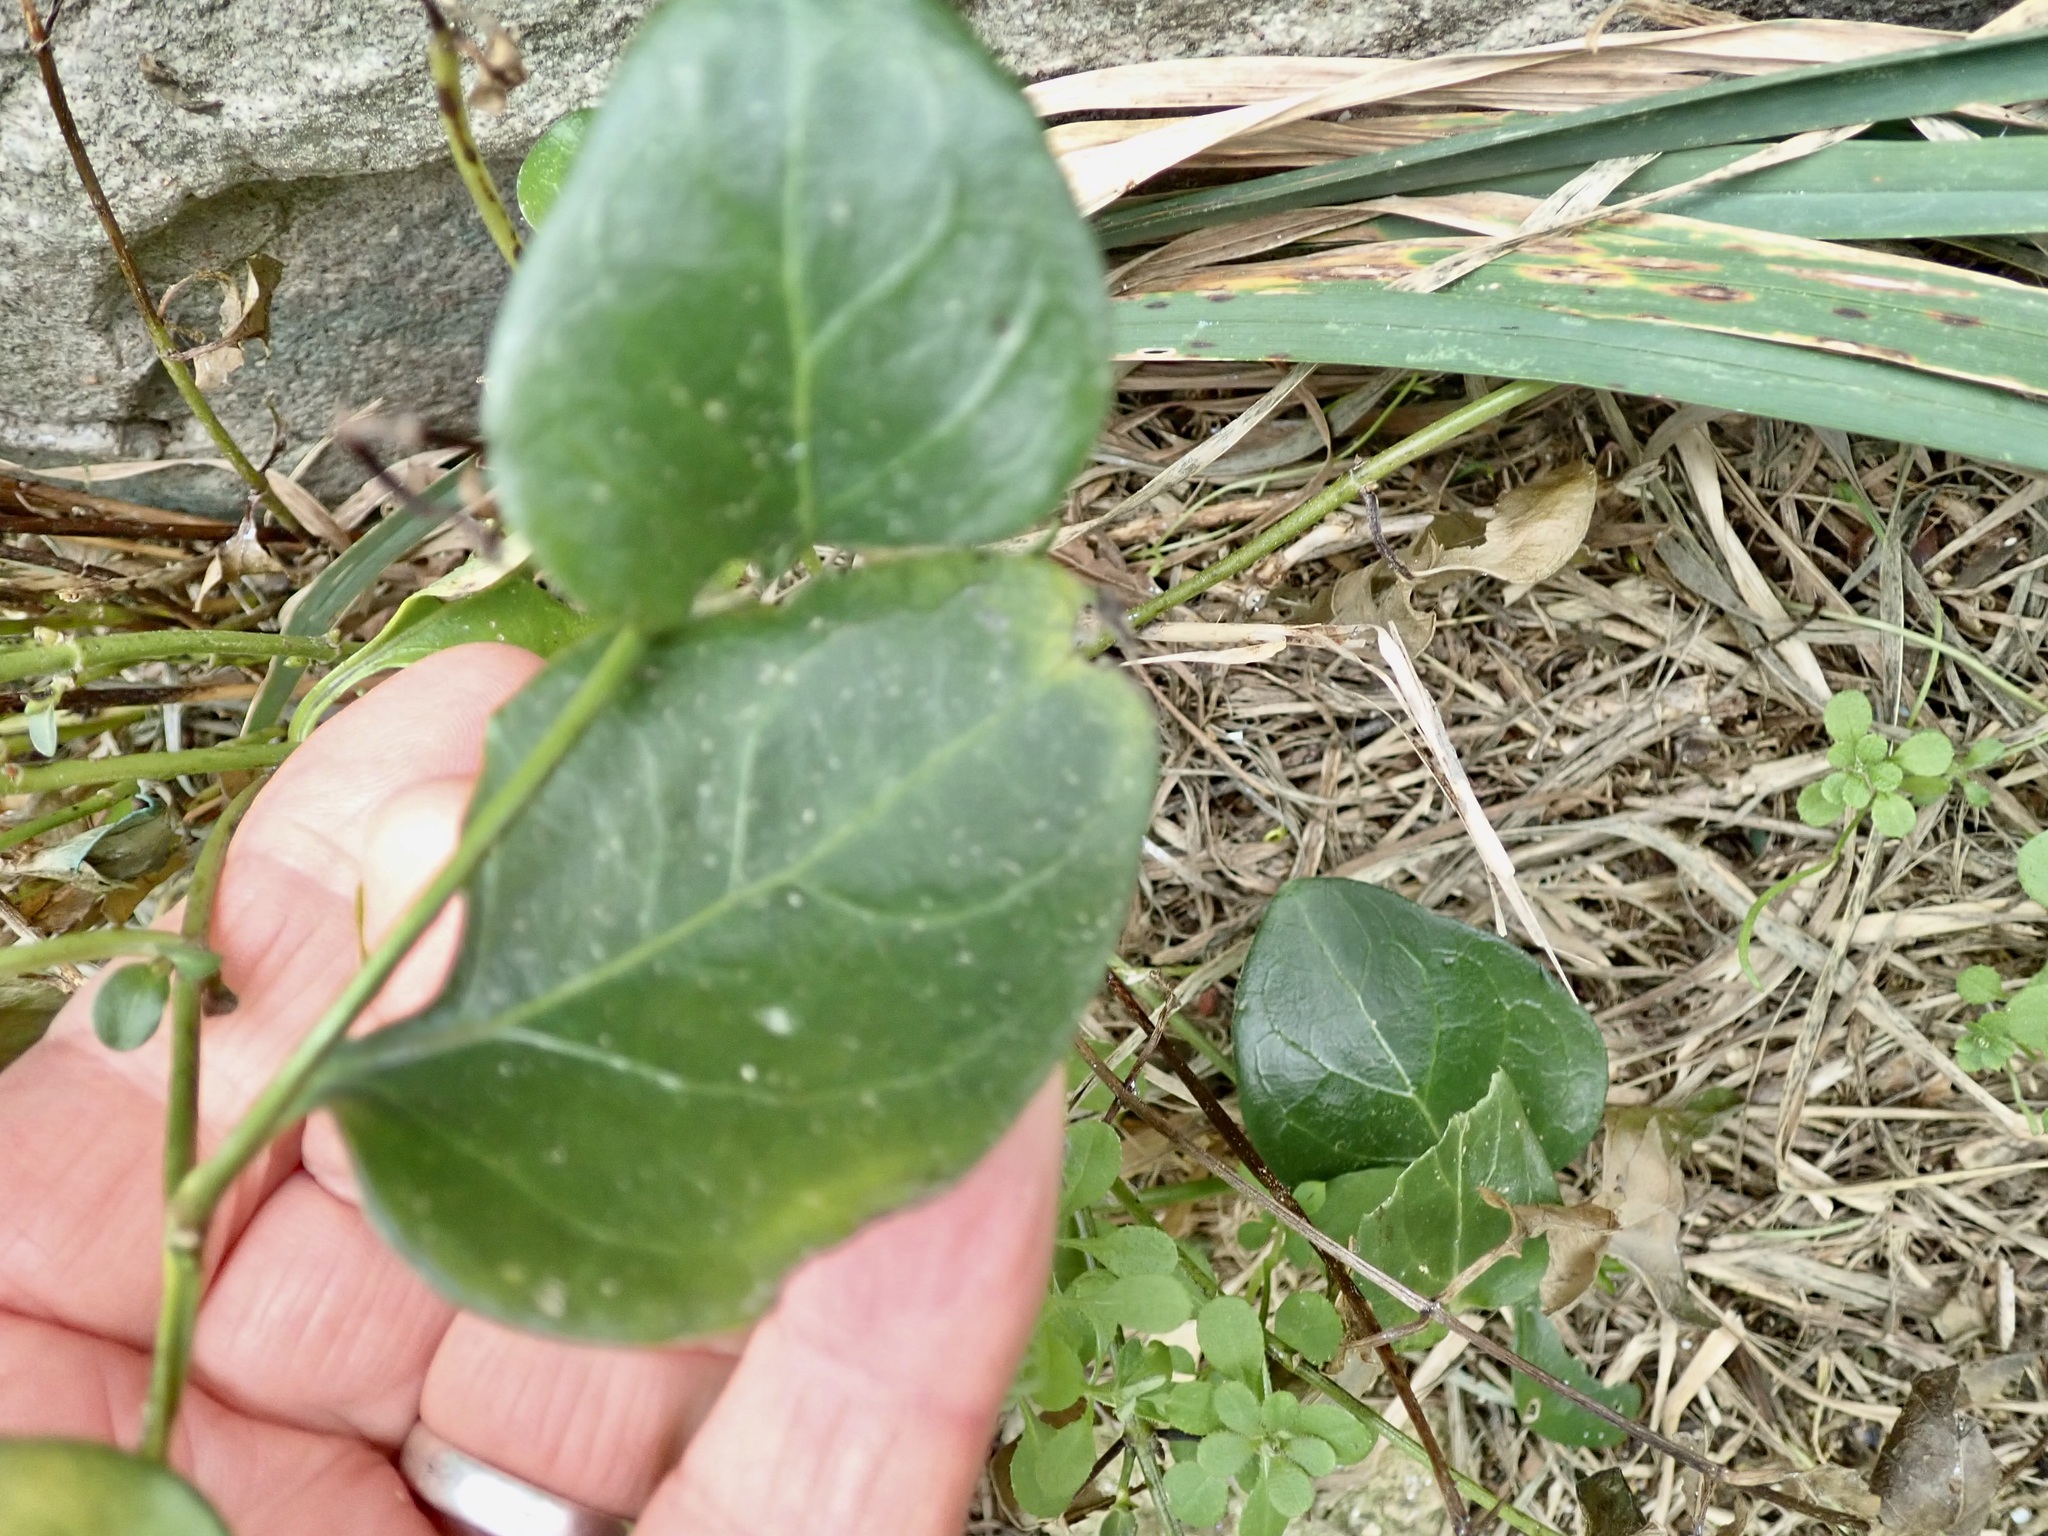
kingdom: Plantae
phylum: Tracheophyta
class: Magnoliopsida
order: Gentianales
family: Apocynaceae
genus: Vinca
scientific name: Vinca major
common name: Greater periwinkle
